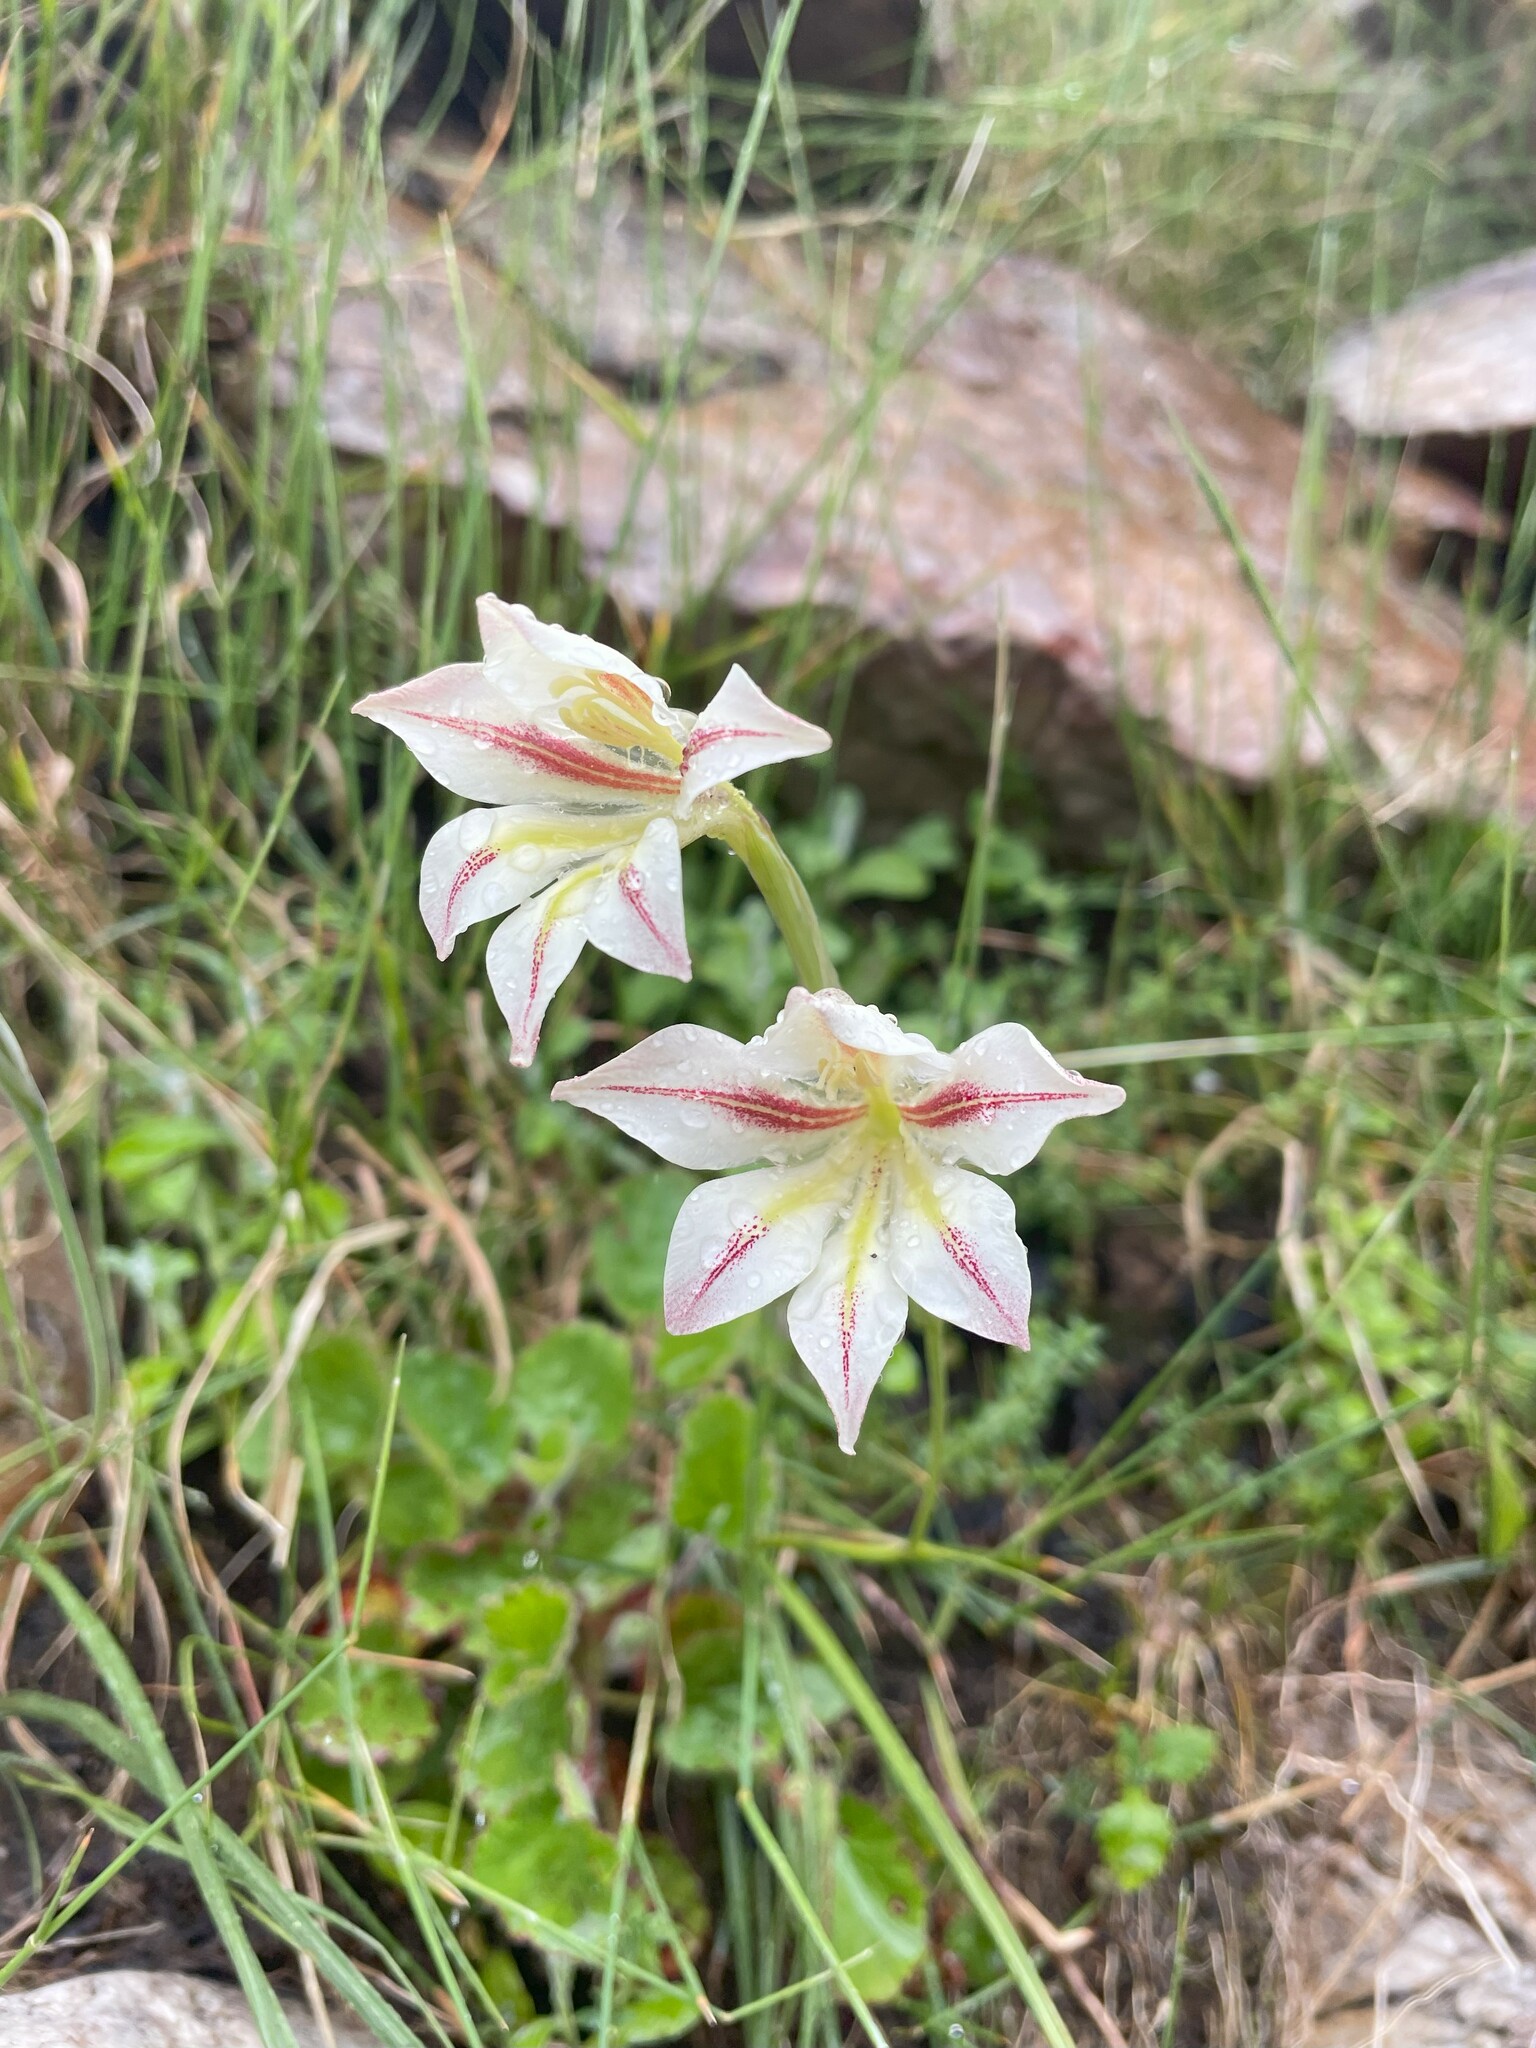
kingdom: Plantae
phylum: Tracheophyta
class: Liliopsida
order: Asparagales
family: Iridaceae
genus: Gladiolus
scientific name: Gladiolus tristis
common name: Ever-flowering gladiolus
